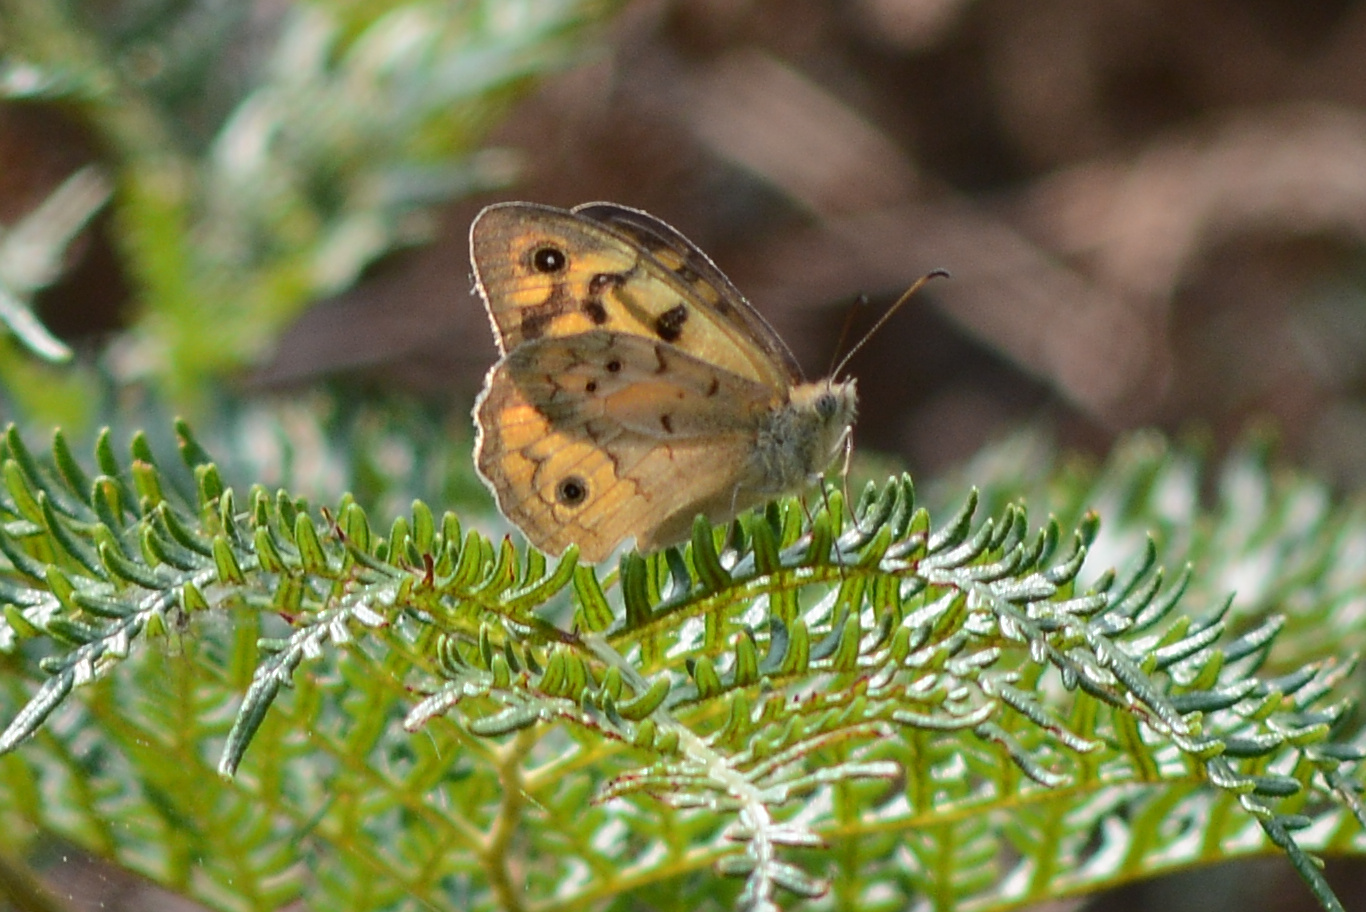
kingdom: Animalia
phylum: Arthropoda
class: Insecta
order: Lepidoptera
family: Nymphalidae
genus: Heteronympha
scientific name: Heteronympha merope
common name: Common brown
